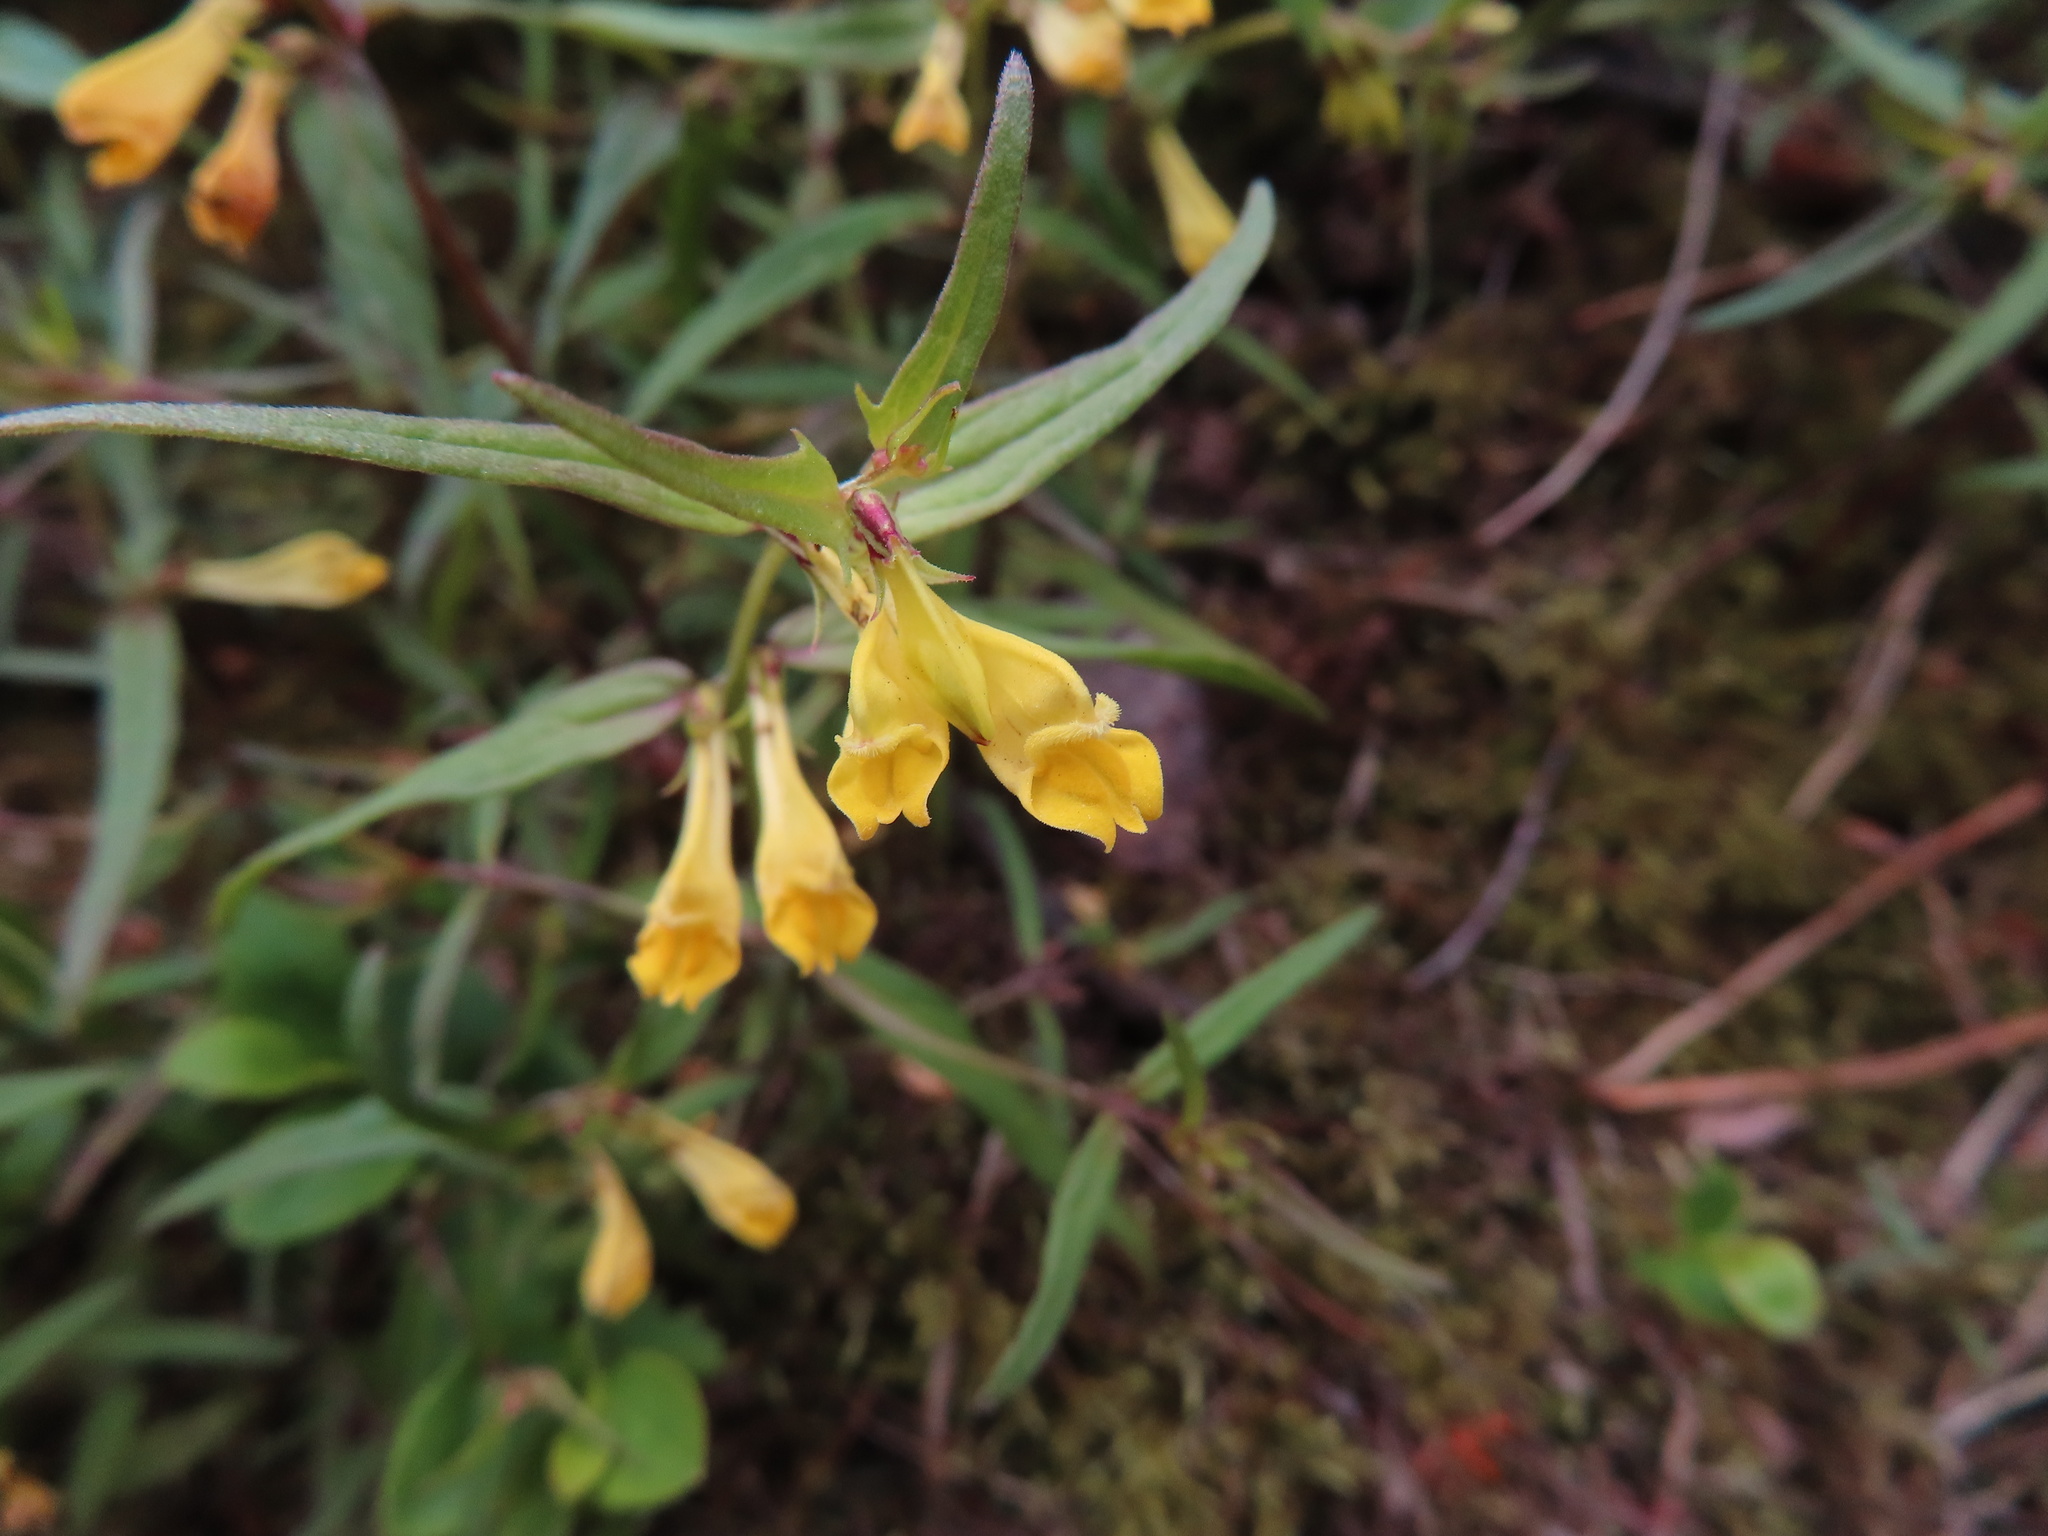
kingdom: Plantae
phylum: Tracheophyta
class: Magnoliopsida
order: Lamiales
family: Orobanchaceae
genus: Melampyrum
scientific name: Melampyrum pratense
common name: Common cow-wheat
